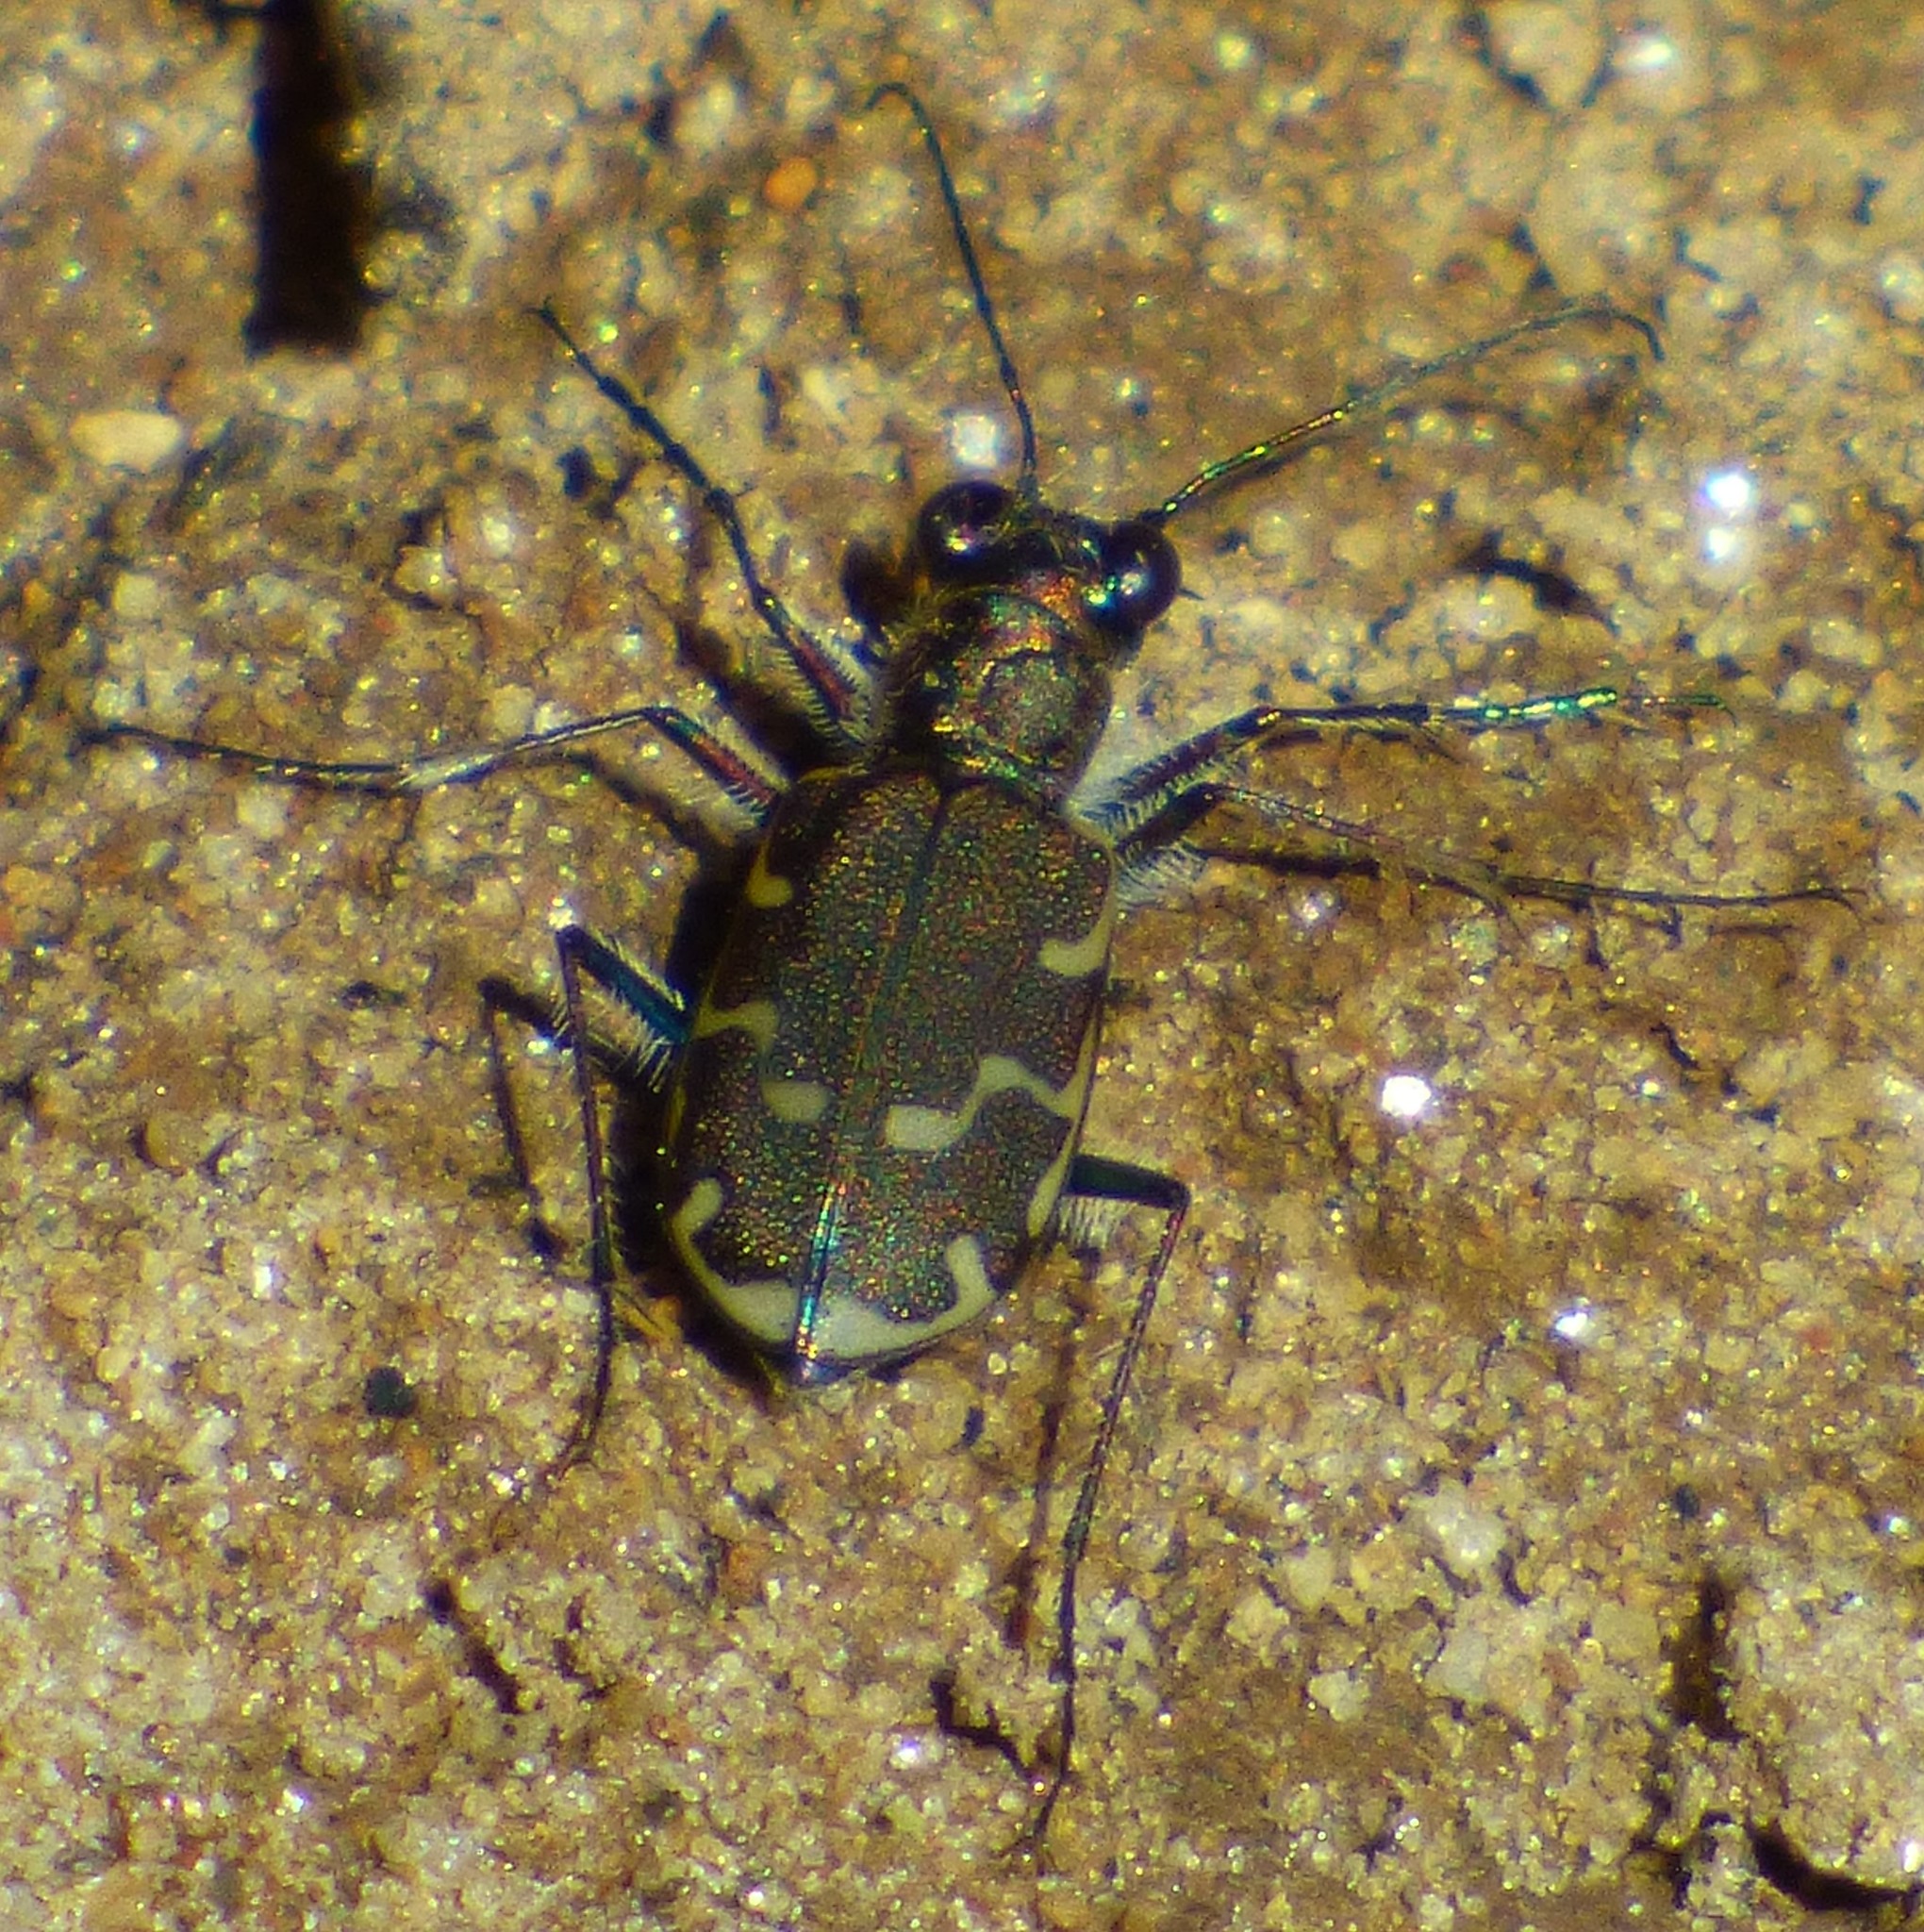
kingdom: Animalia
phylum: Arthropoda
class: Insecta
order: Coleoptera
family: Carabidae
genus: Cicindela
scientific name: Cicindela repanda
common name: Bronzed tiger beetle
